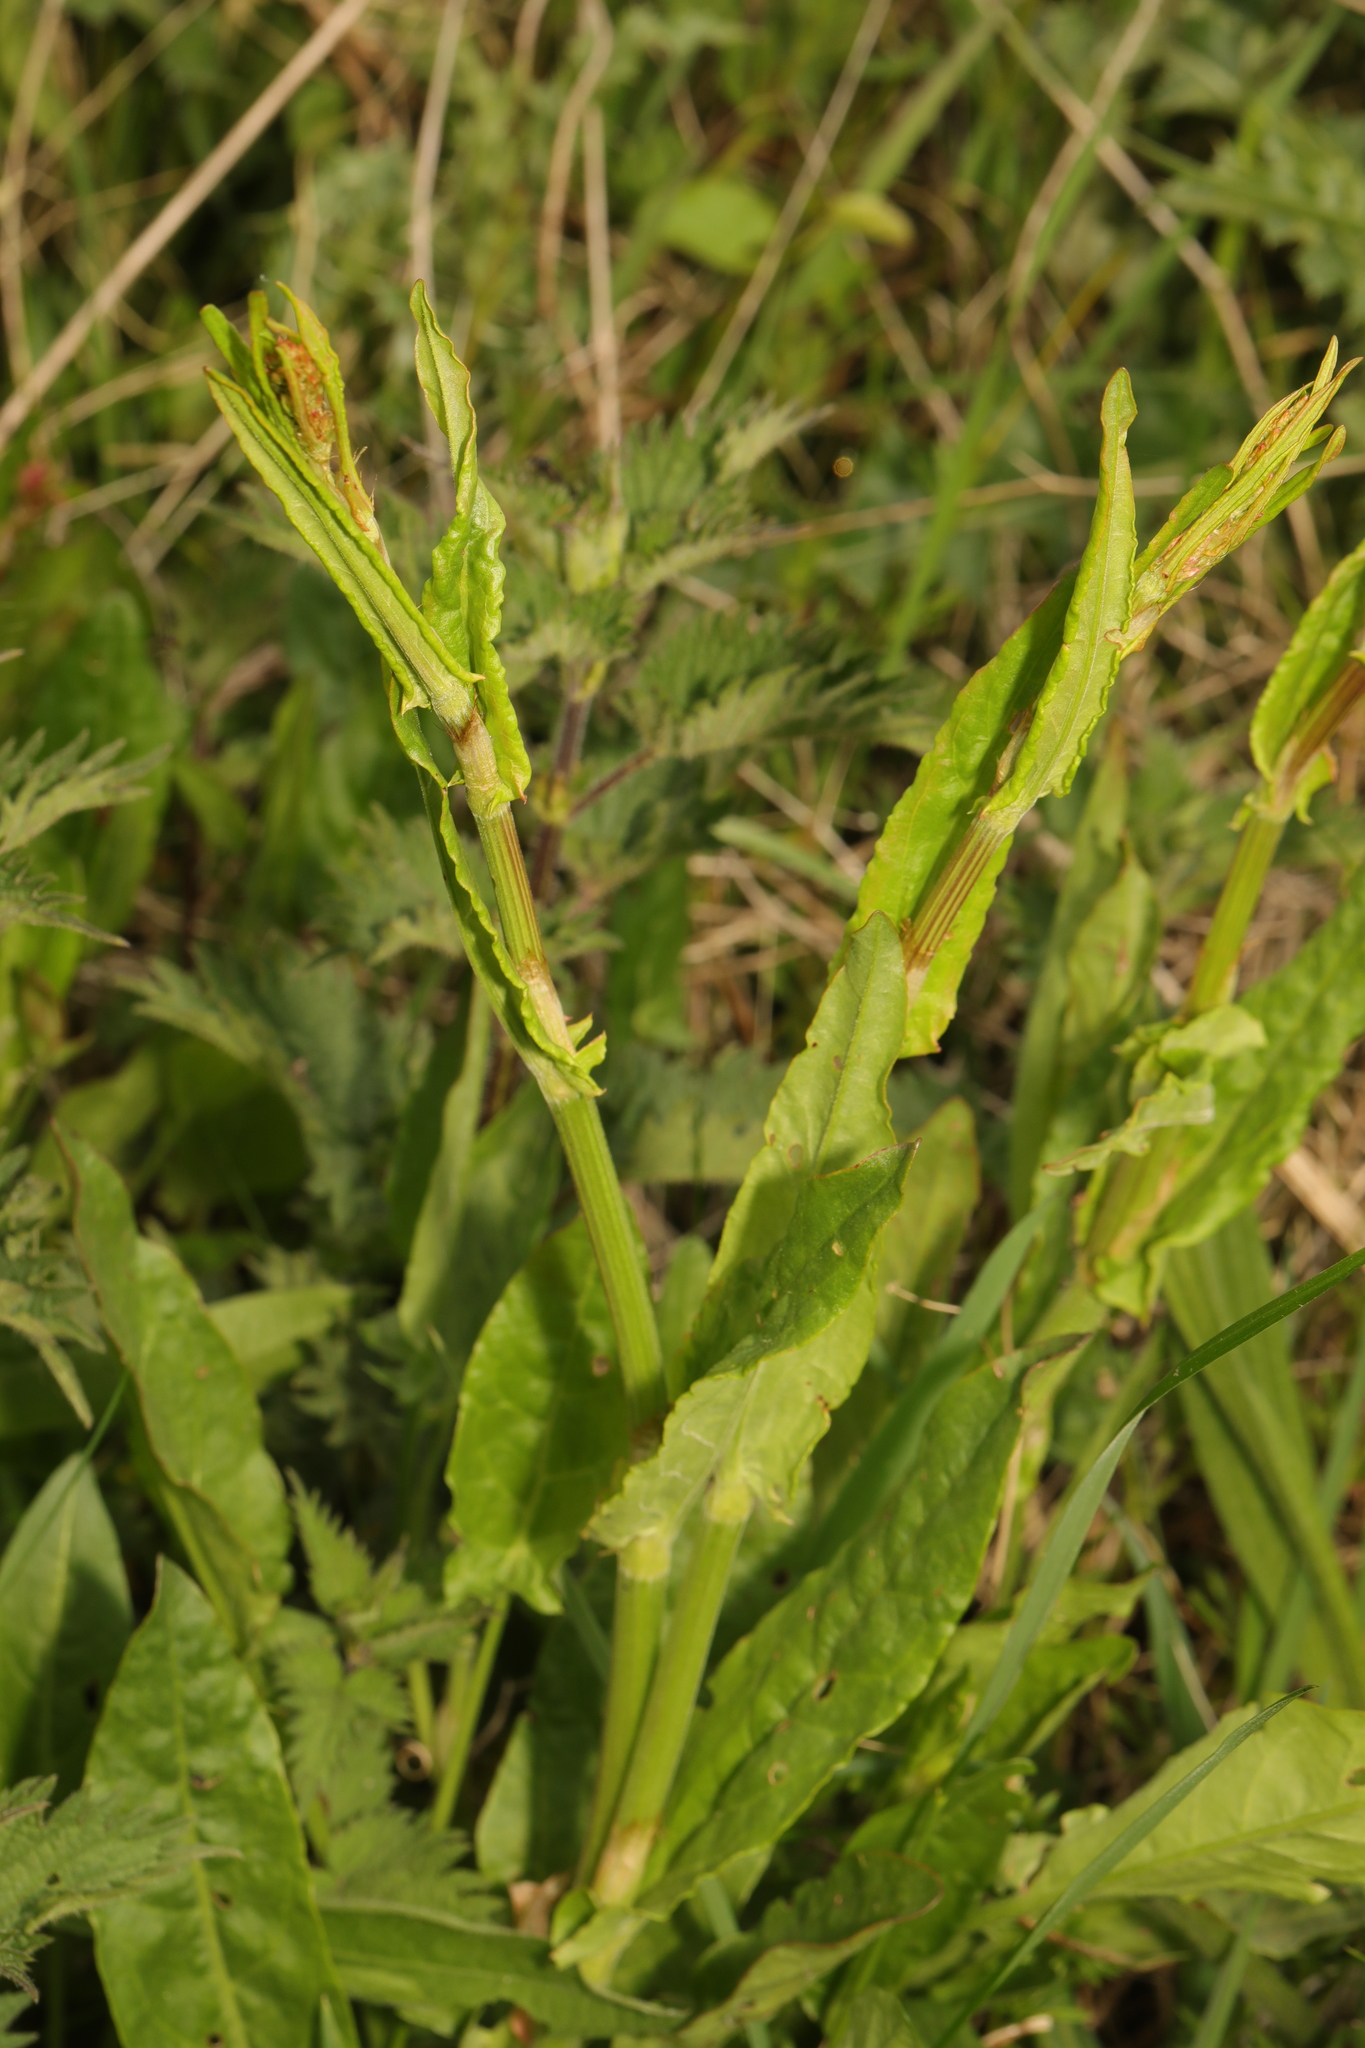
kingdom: Plantae
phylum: Tracheophyta
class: Magnoliopsida
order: Caryophyllales
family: Polygonaceae
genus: Rumex
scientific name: Rumex acetosa
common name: Garden sorrel
